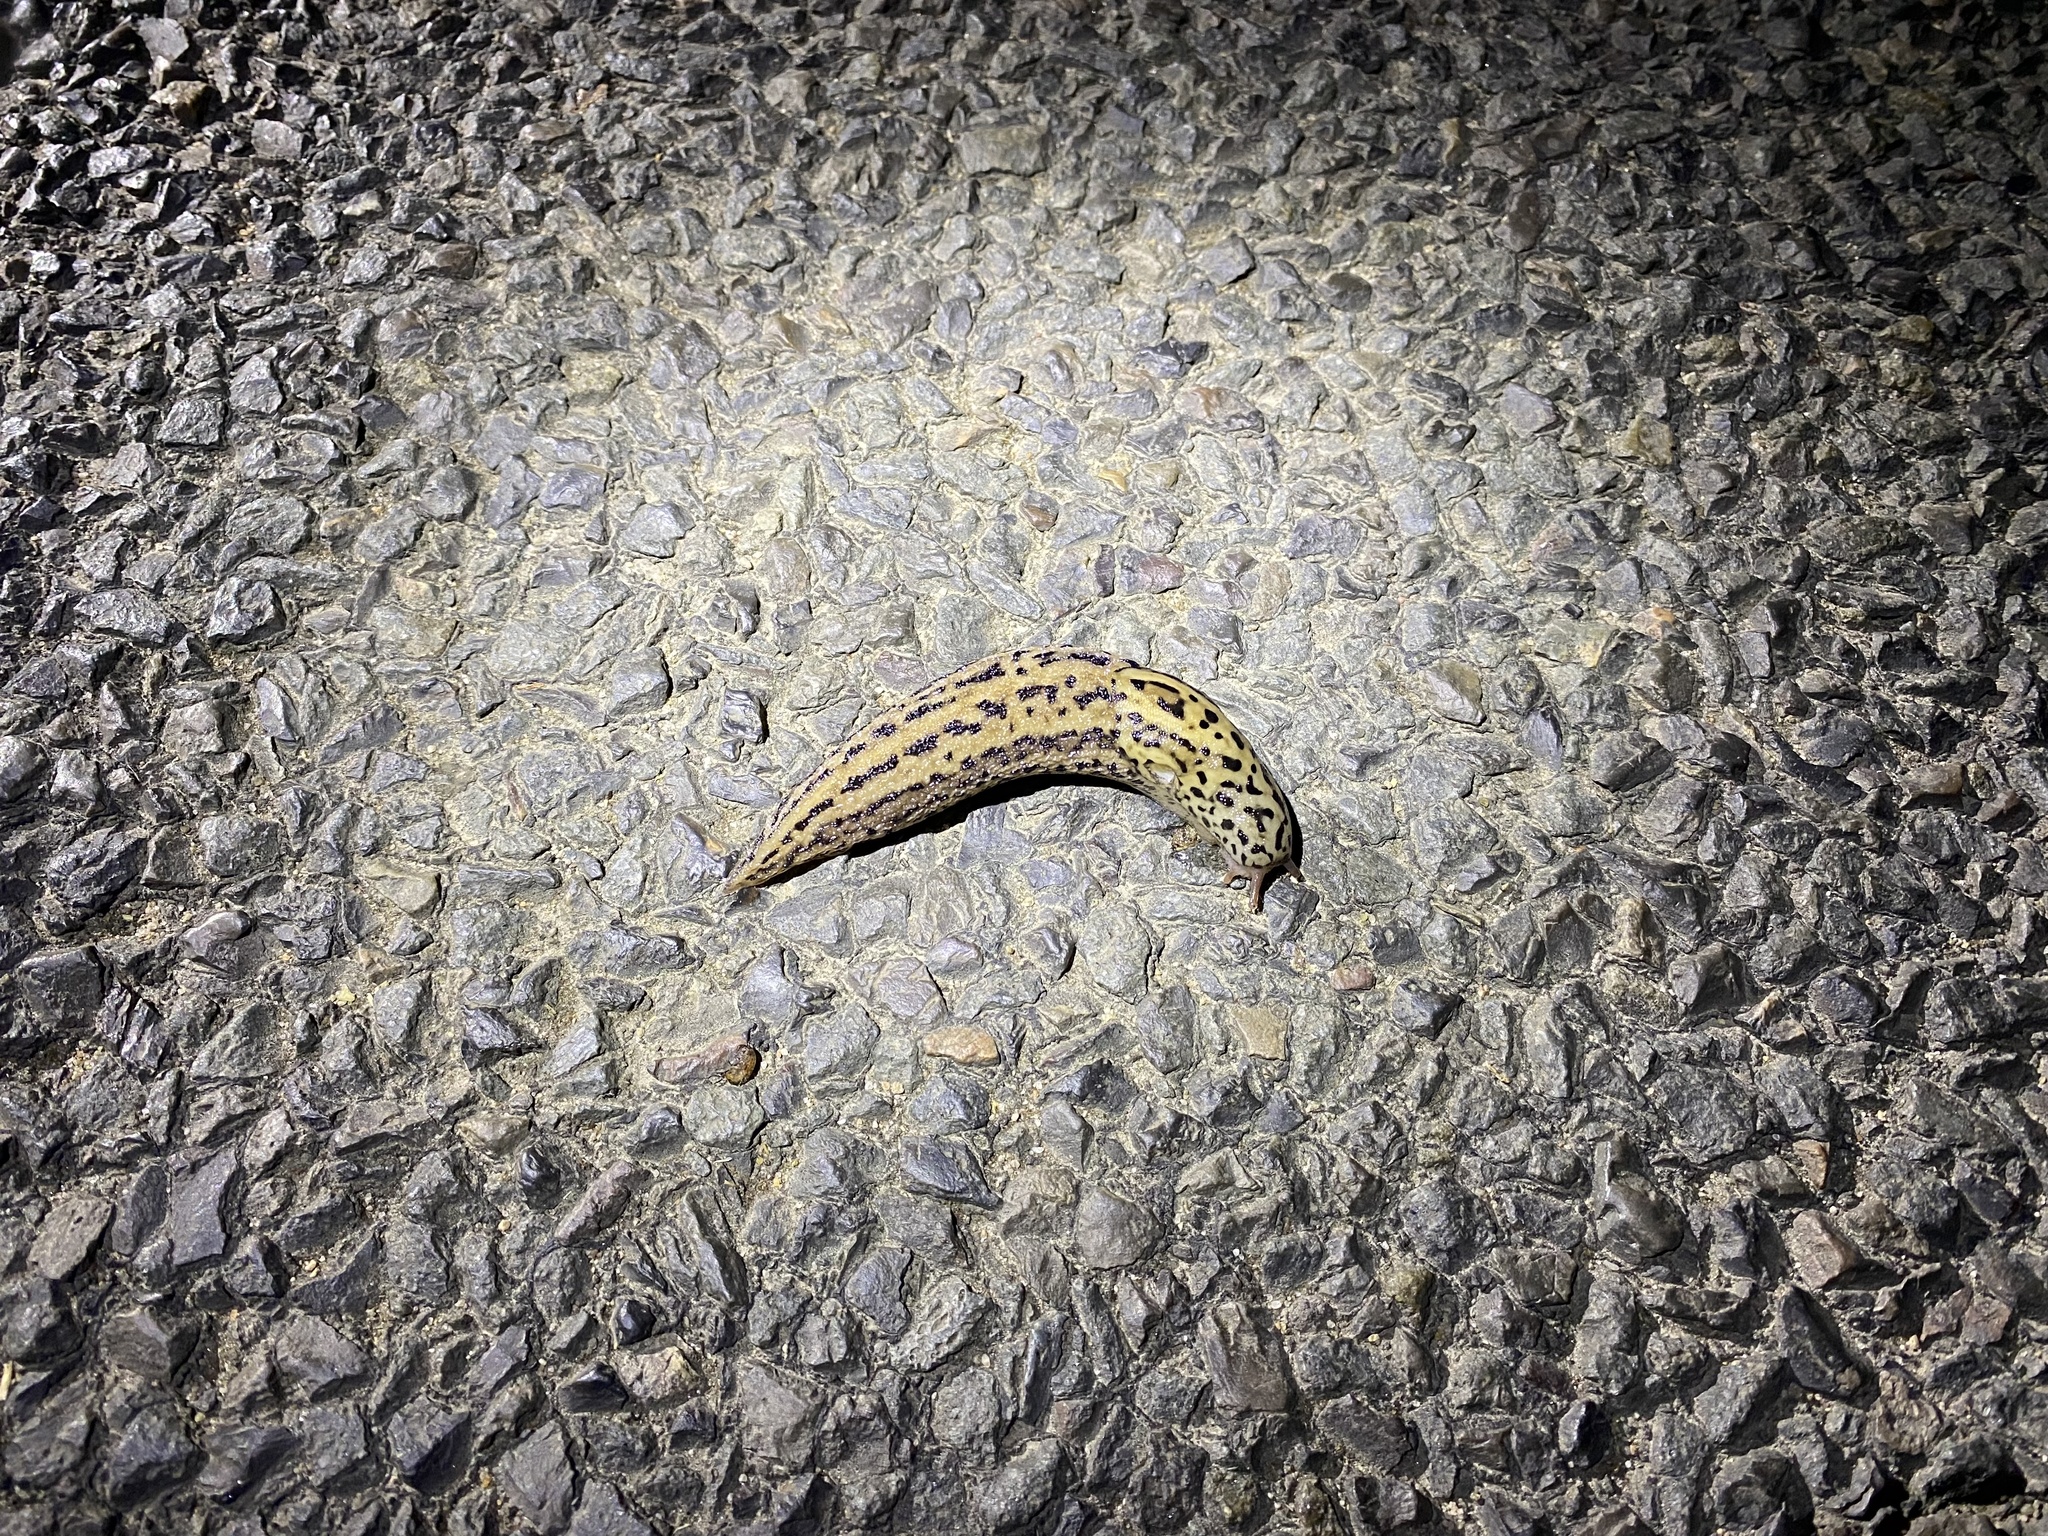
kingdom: Animalia
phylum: Mollusca
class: Gastropoda
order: Stylommatophora
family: Limacidae
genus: Limax
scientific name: Limax maximus
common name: Great grey slug
